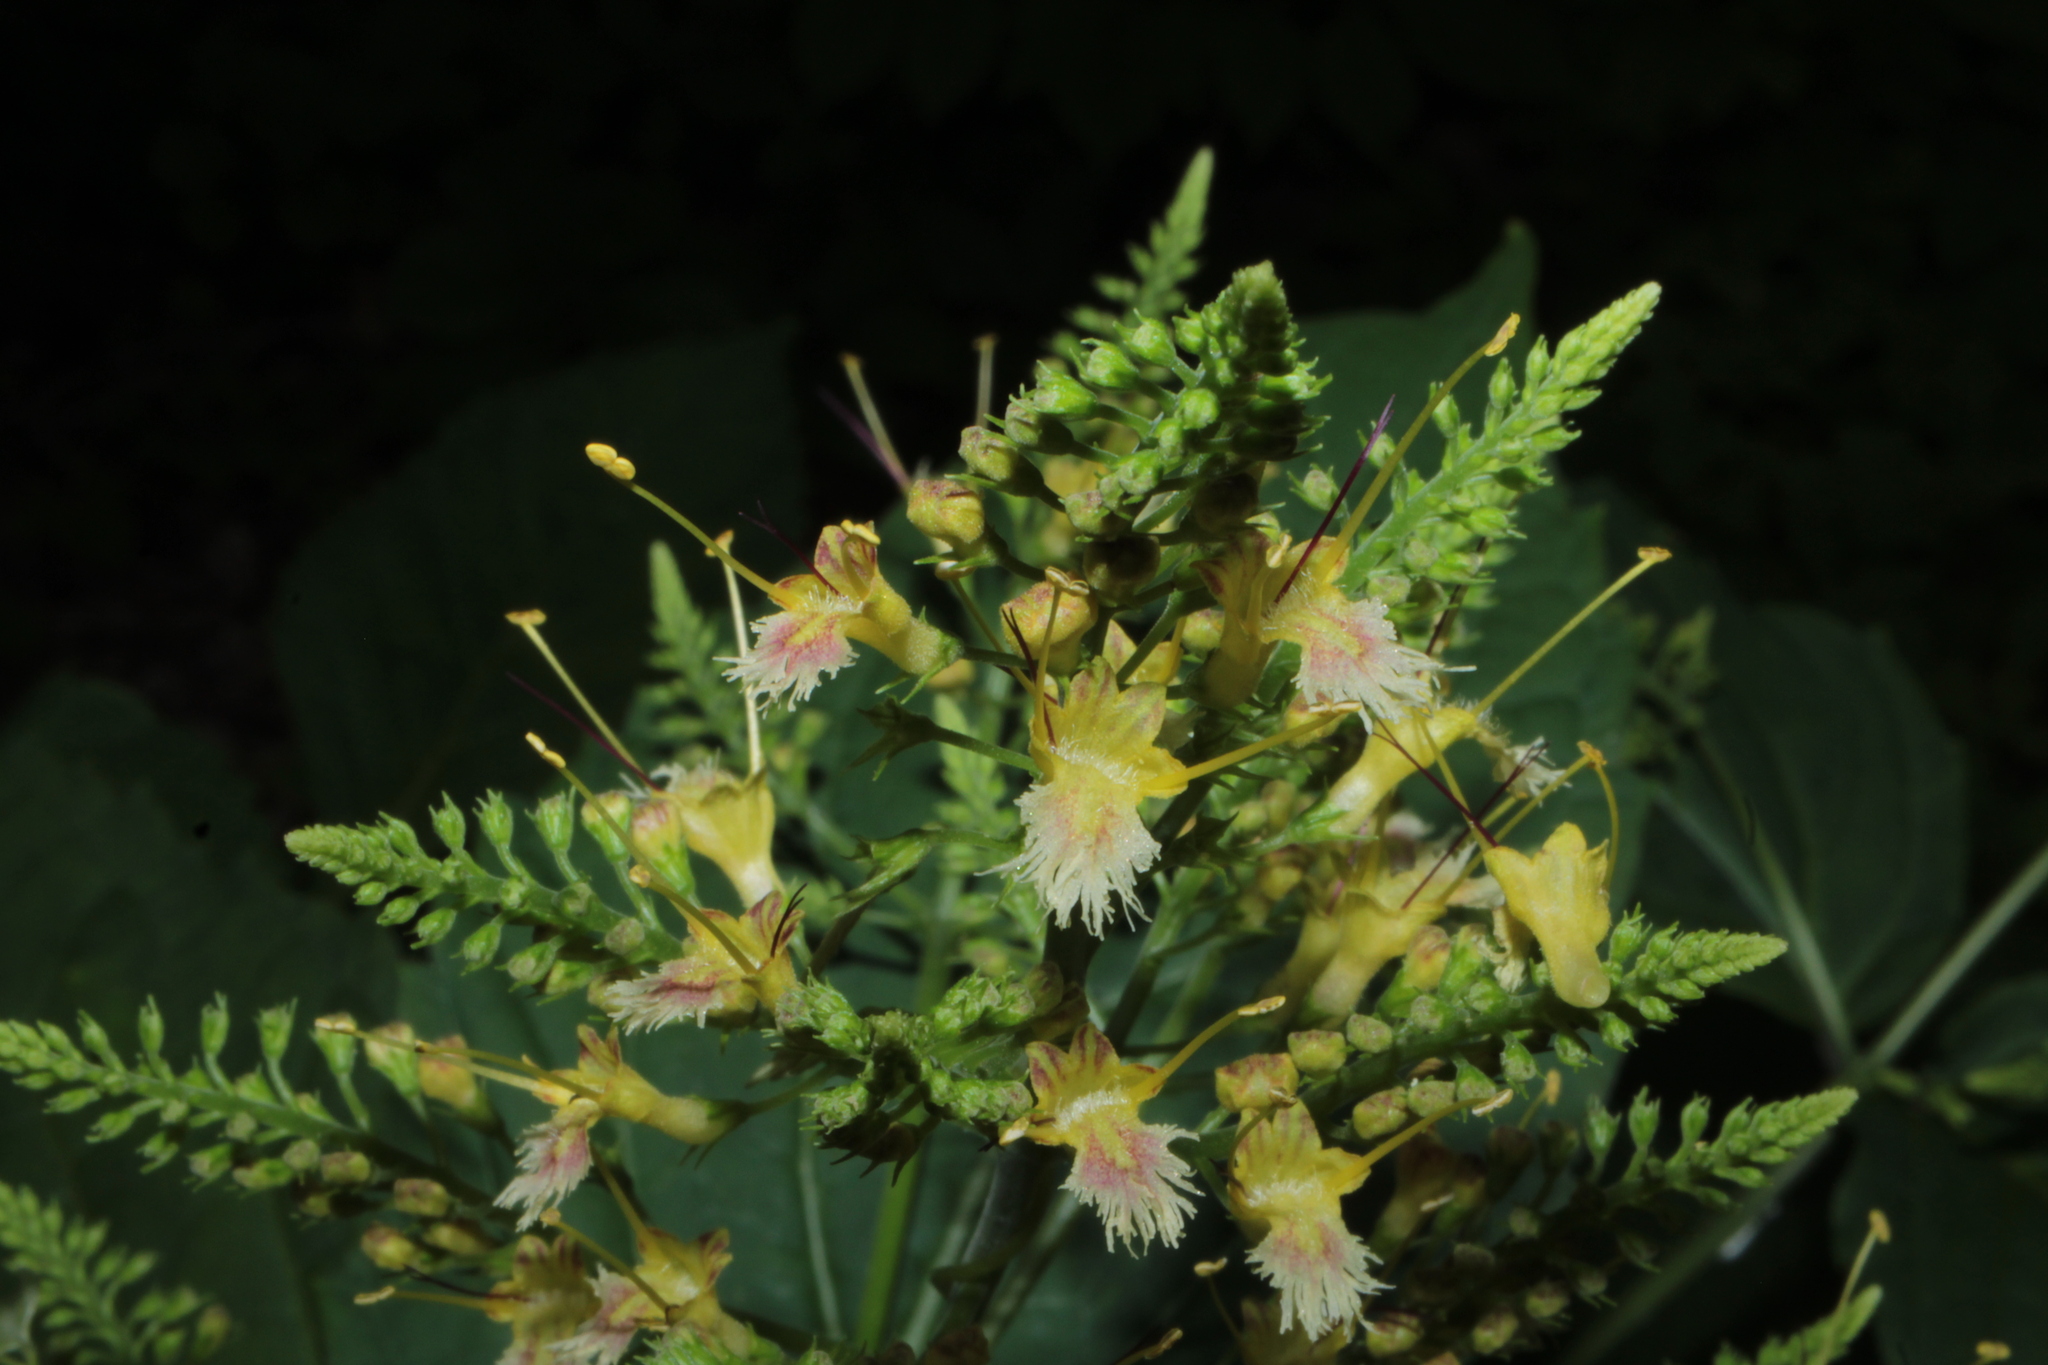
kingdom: Plantae
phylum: Tracheophyta
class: Magnoliopsida
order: Lamiales
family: Lamiaceae
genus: Collinsonia
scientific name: Collinsonia canadensis
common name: Northern horsebalm
